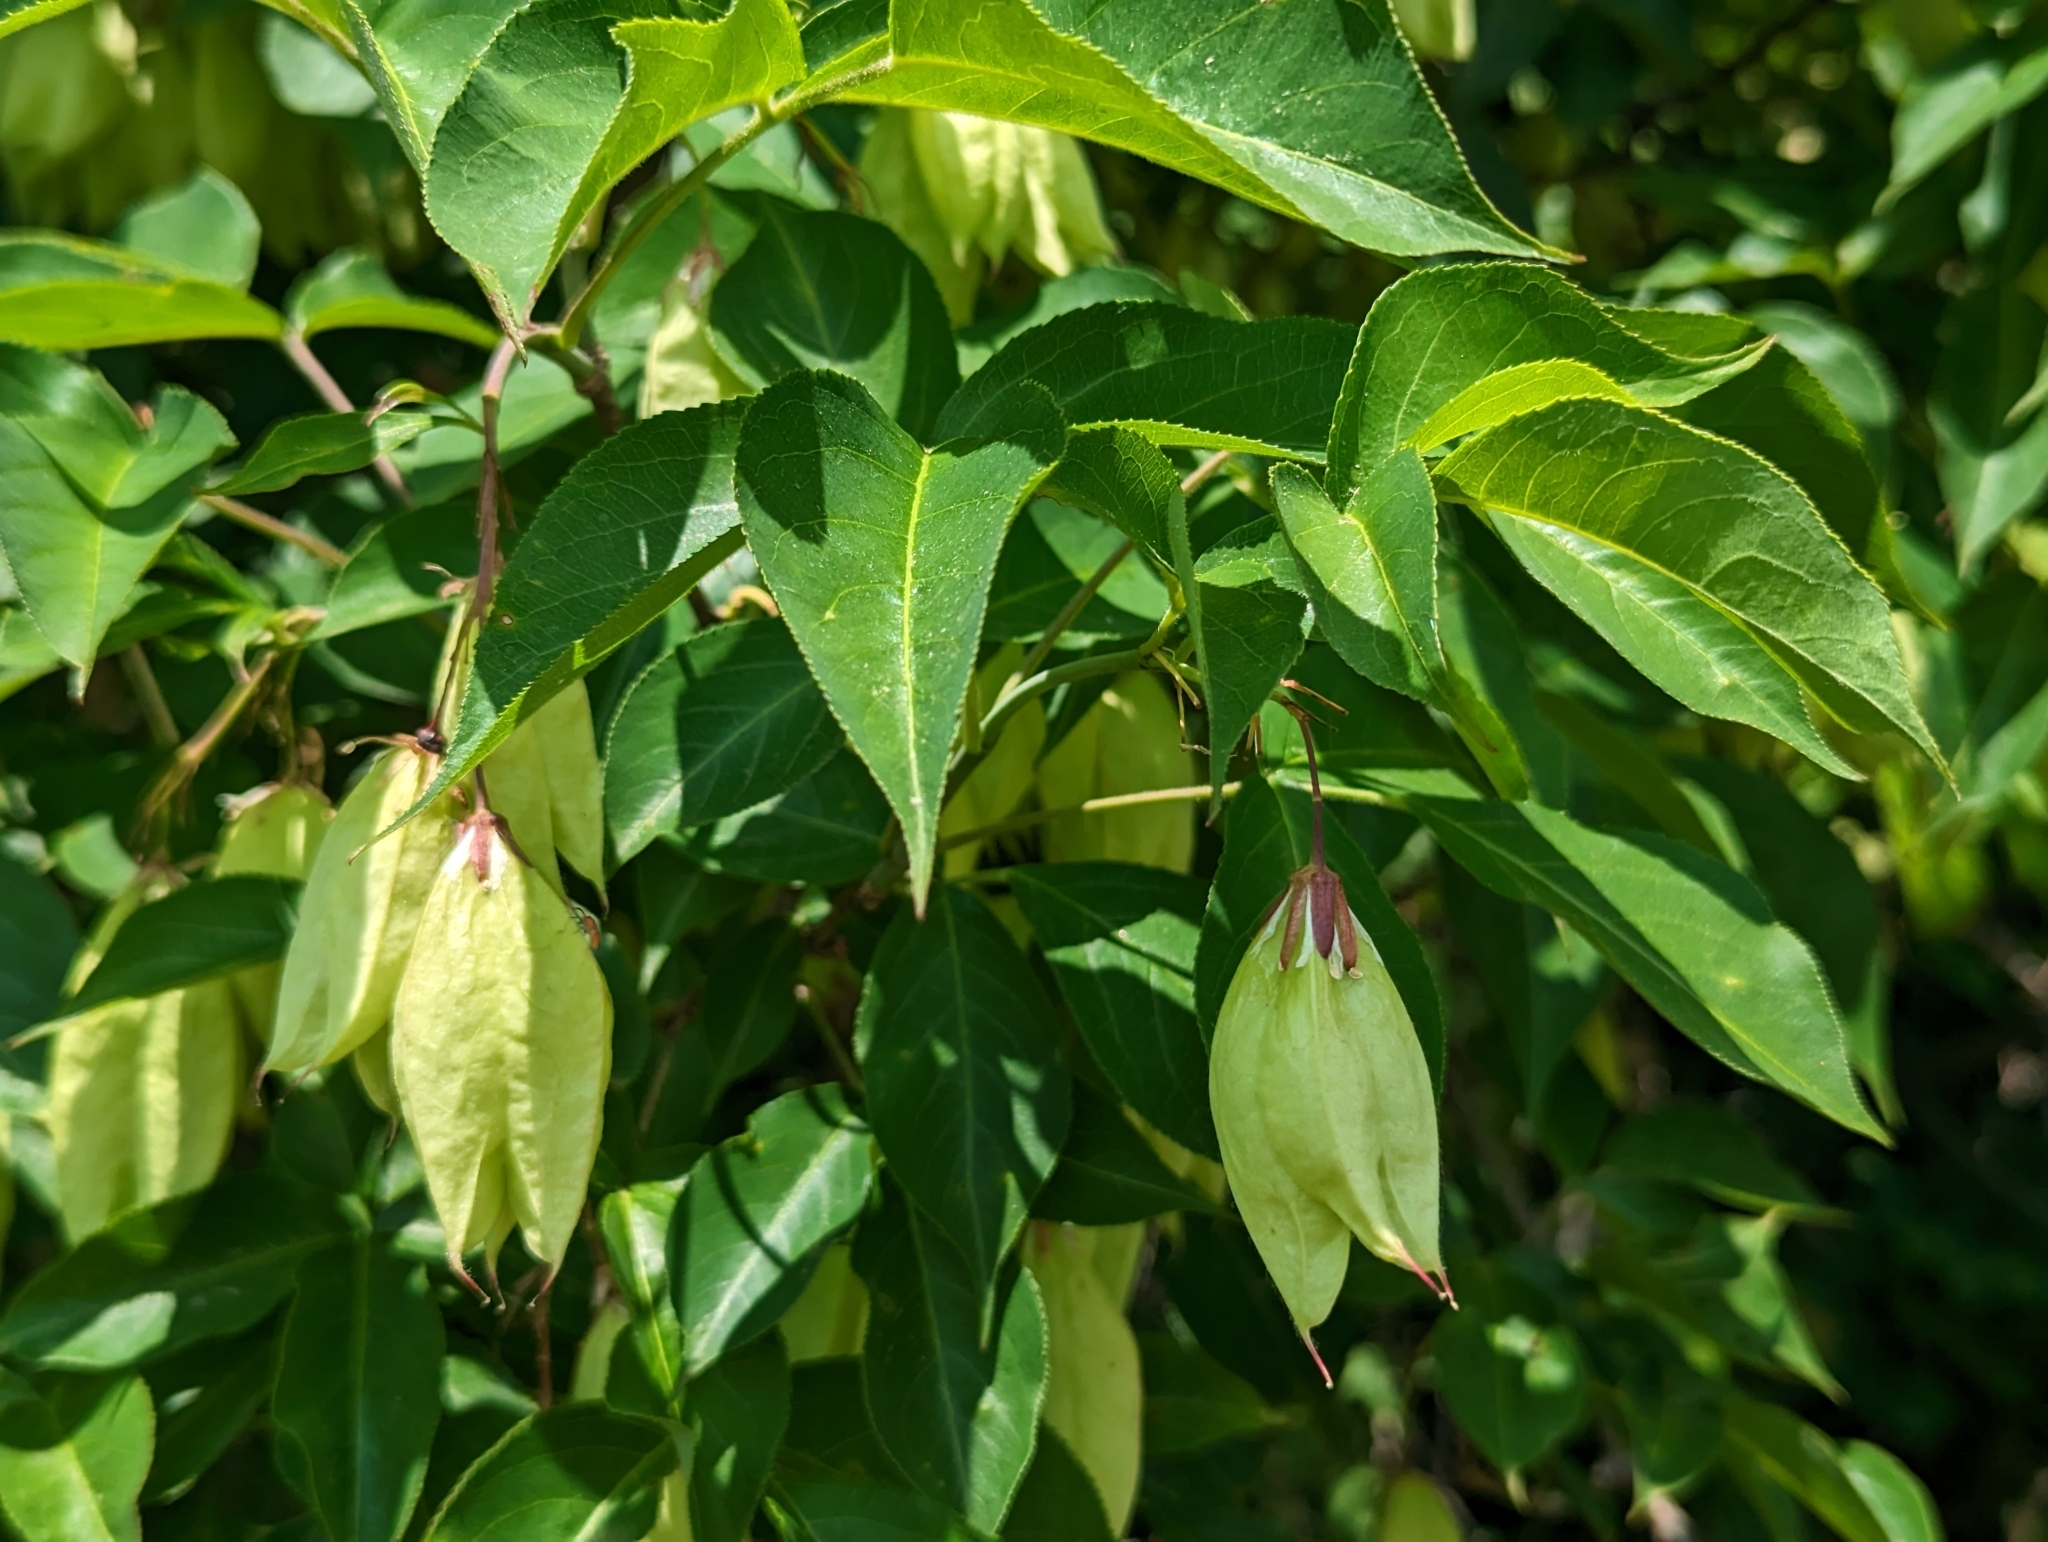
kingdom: Plantae
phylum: Tracheophyta
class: Magnoliopsida
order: Crossosomatales
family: Staphyleaceae
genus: Staphylea
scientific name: Staphylea trifolia
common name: American bladdernut
